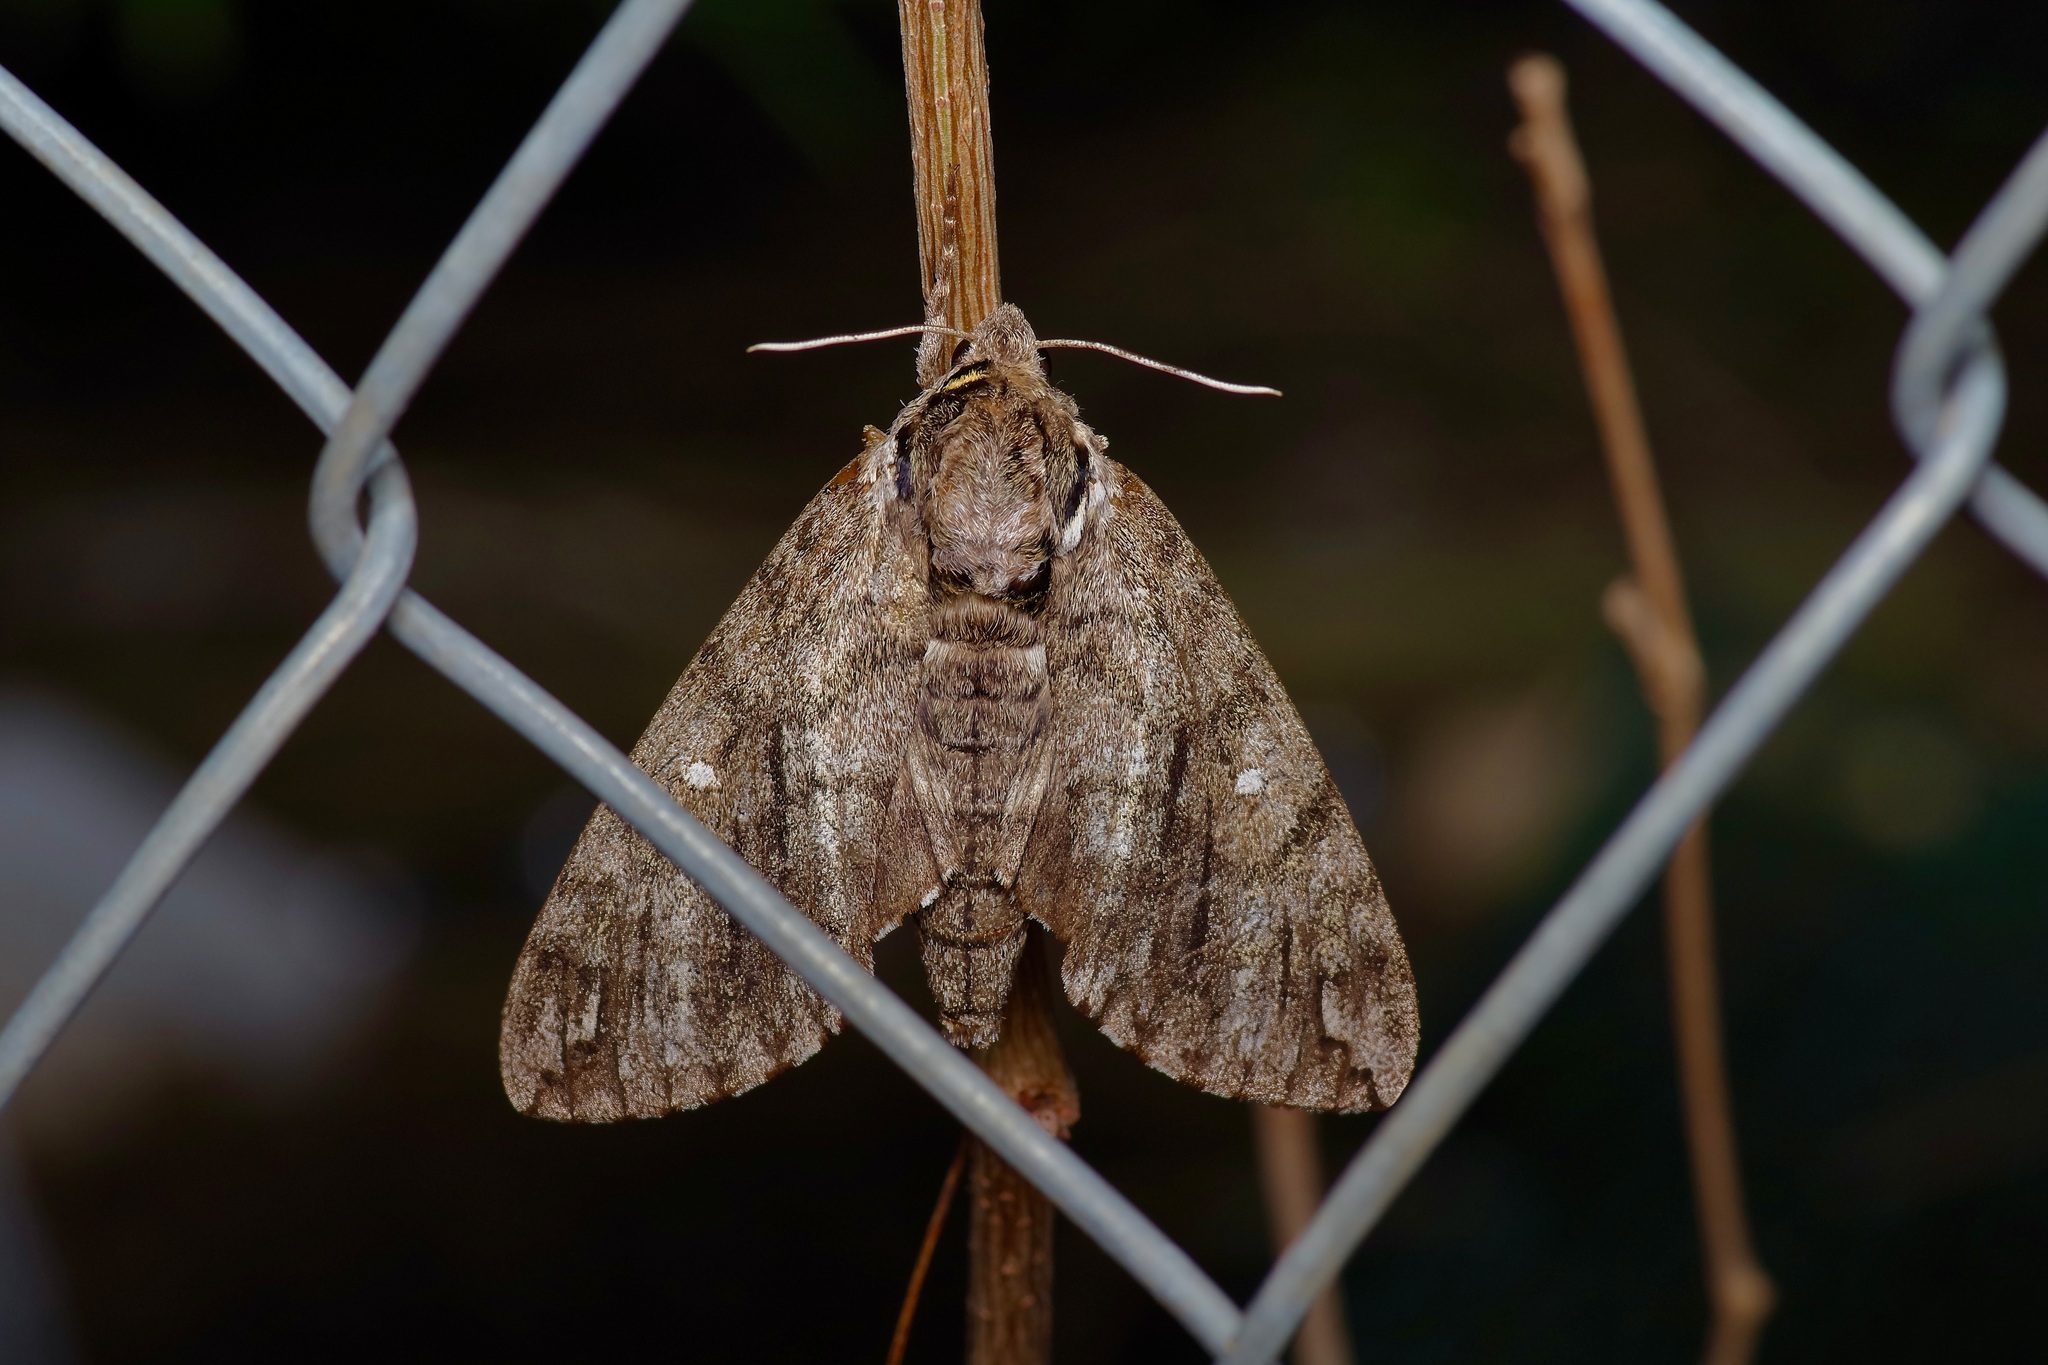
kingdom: Animalia
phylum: Arthropoda
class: Insecta
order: Lepidoptera
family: Sphingidae
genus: Ceratomia
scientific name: Ceratomia undulosa
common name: Waved sphinx
